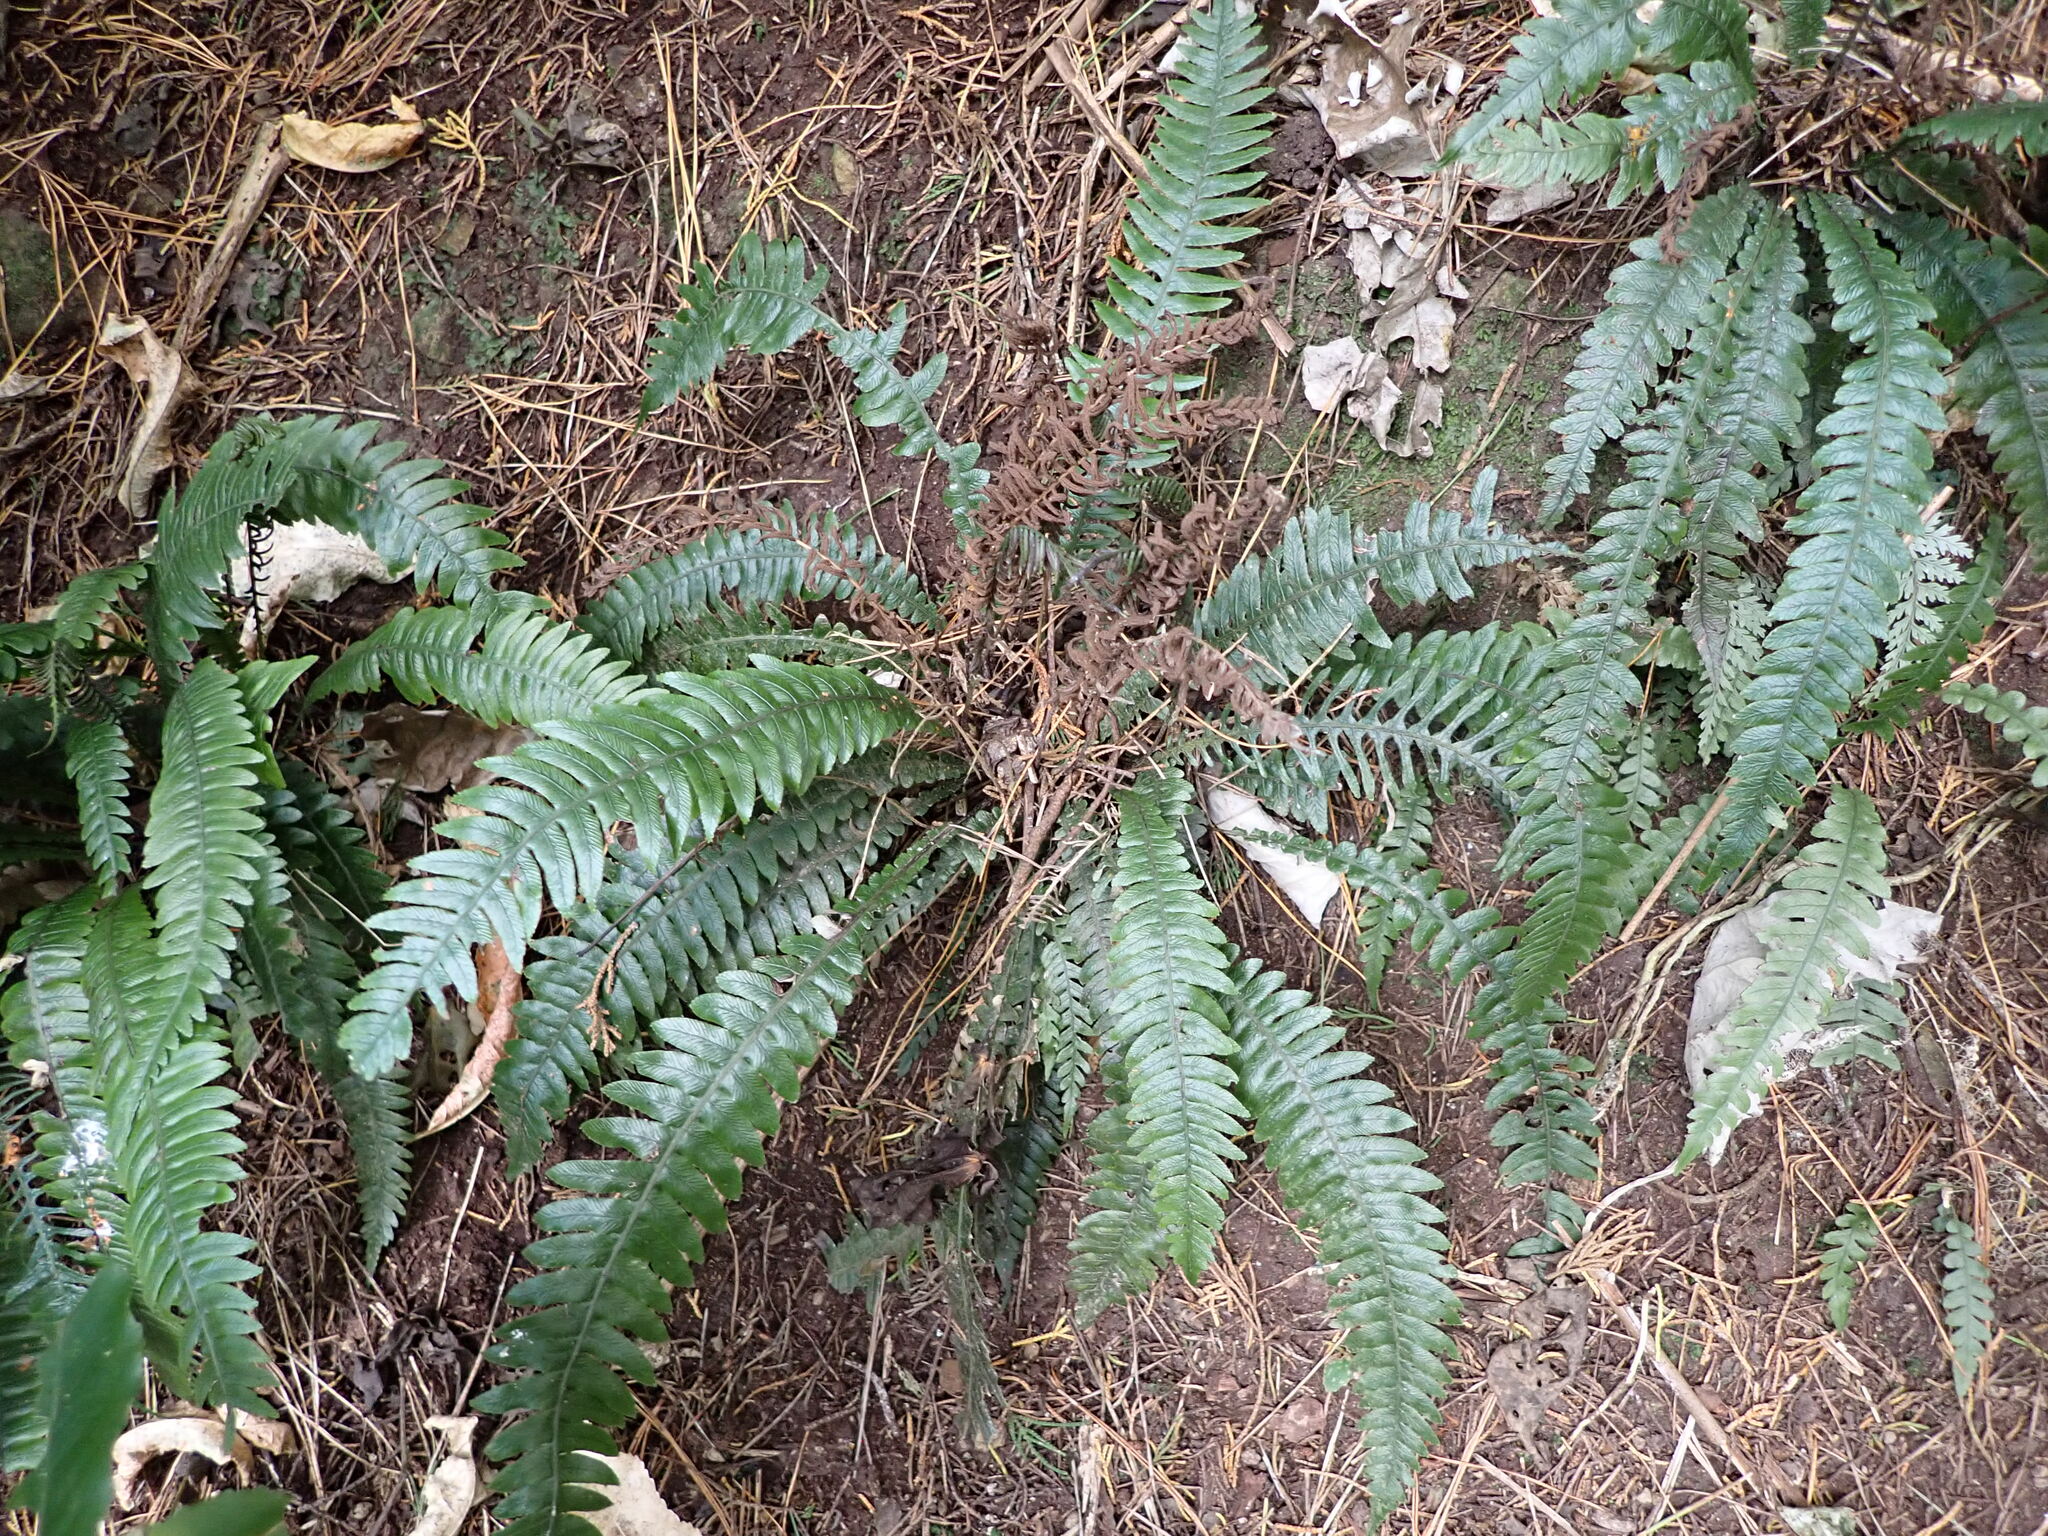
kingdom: Plantae
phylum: Tracheophyta
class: Polypodiopsida
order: Polypodiales
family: Blechnaceae
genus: Austroblechnum
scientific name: Austroblechnum lanceolatum
